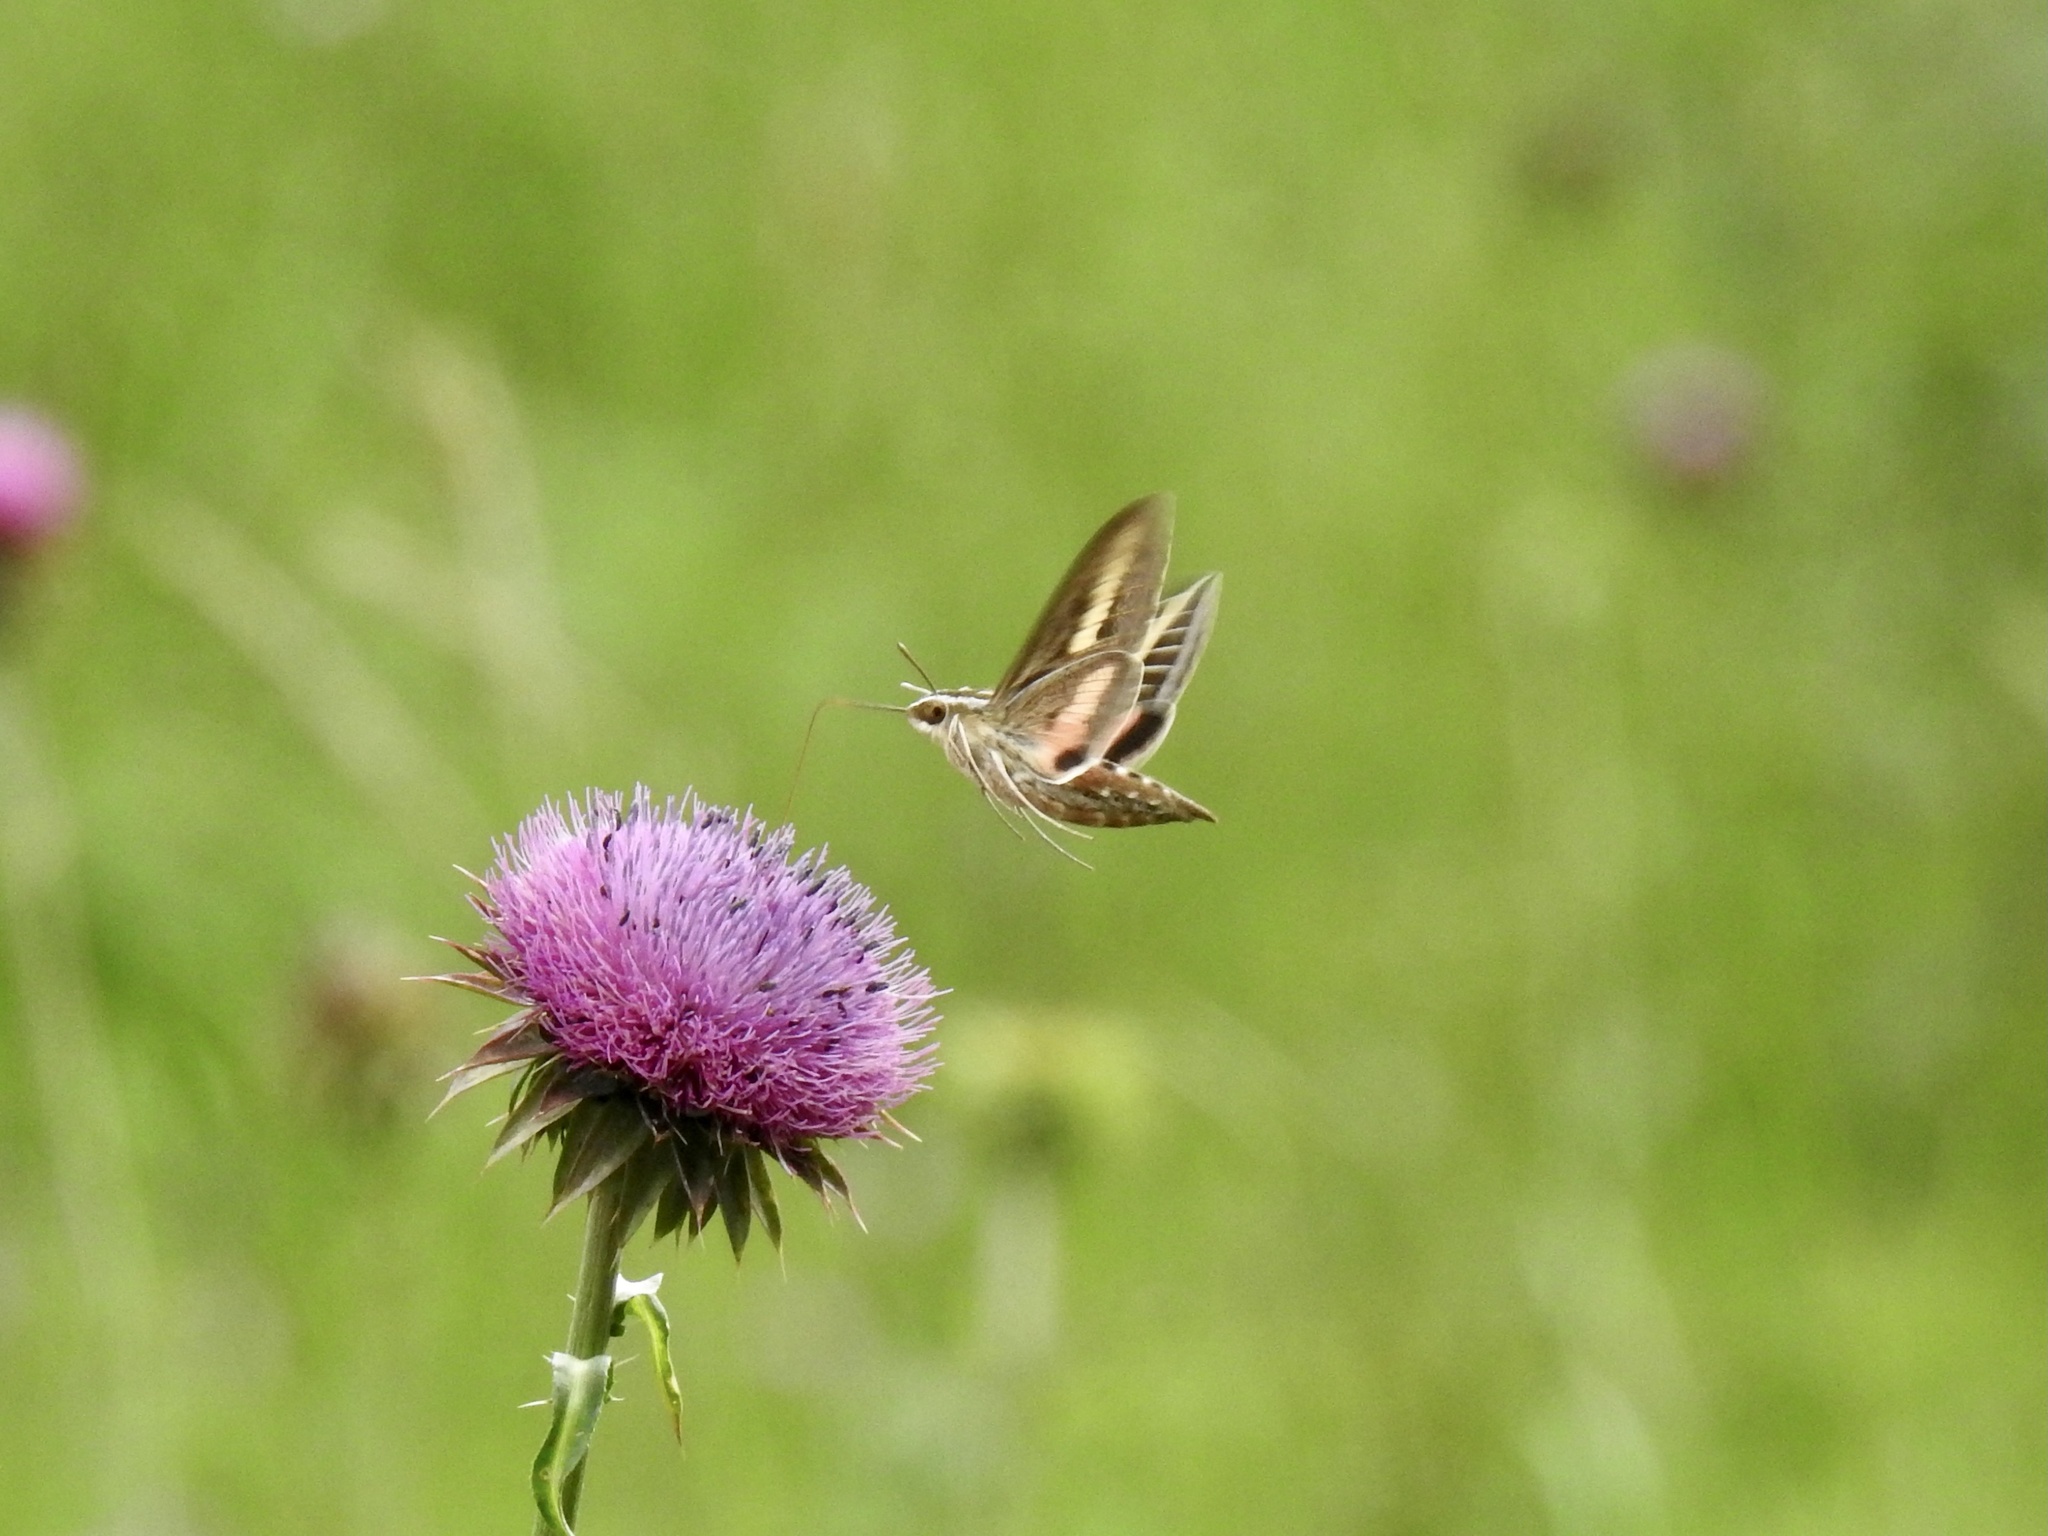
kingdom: Animalia
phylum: Arthropoda
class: Insecta
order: Lepidoptera
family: Sphingidae
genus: Hyles
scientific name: Hyles lineata
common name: White-lined sphinx
